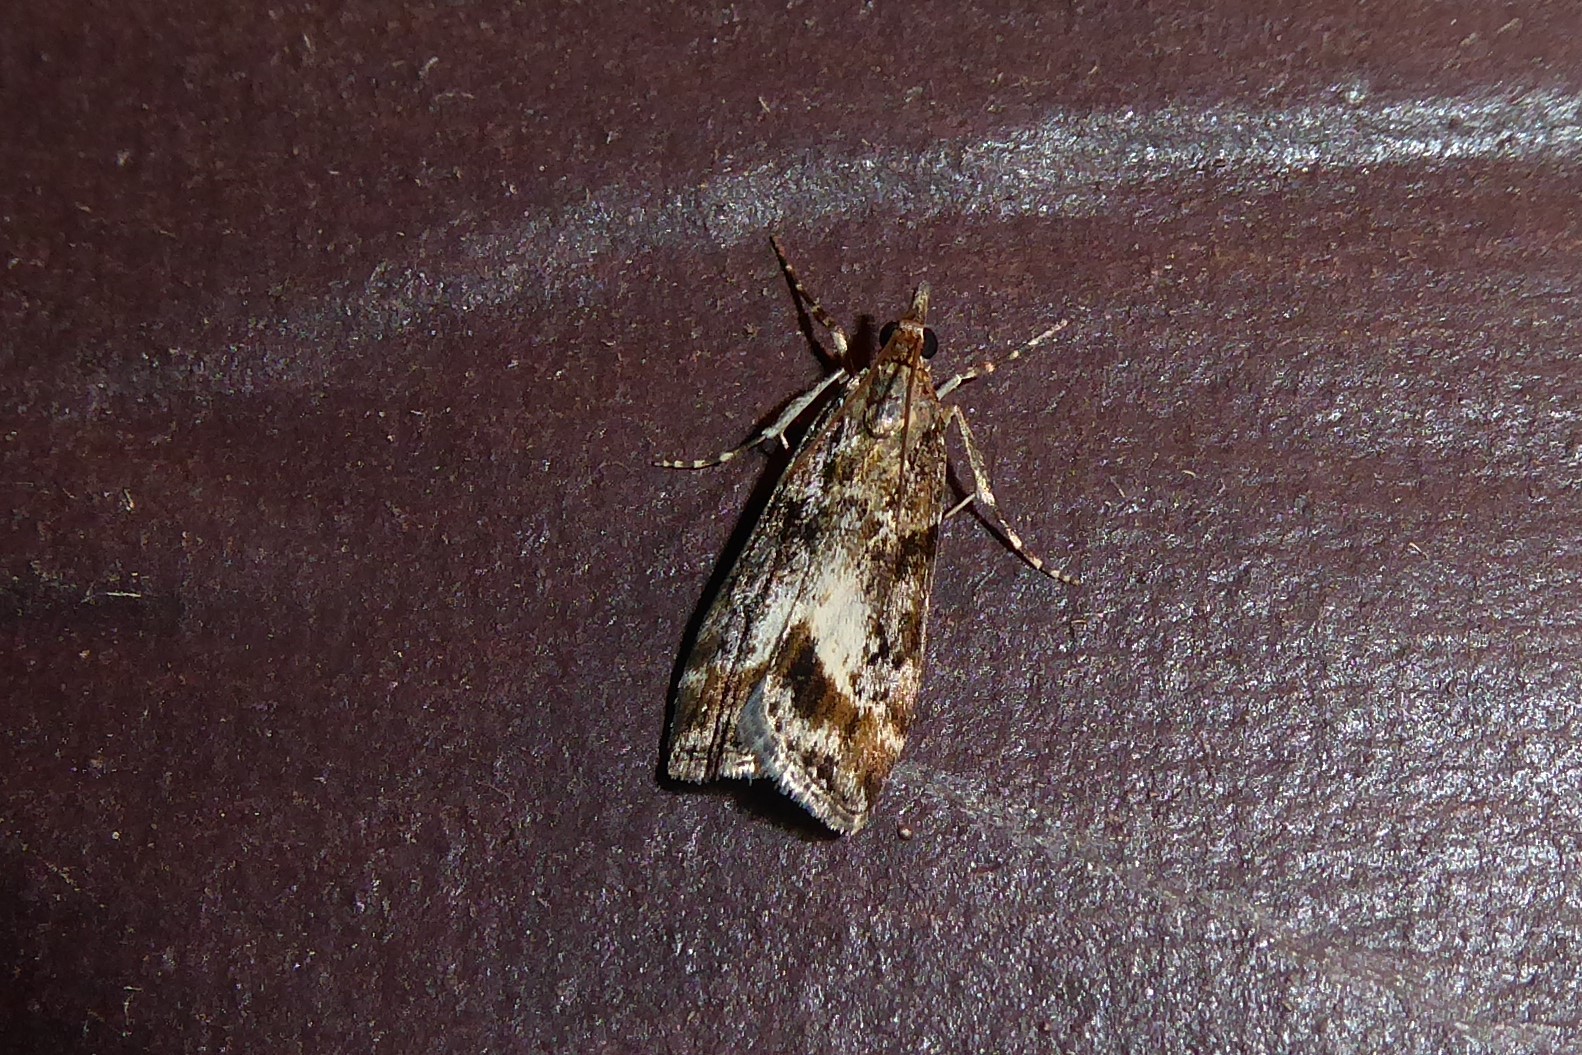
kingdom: Animalia
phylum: Arthropoda
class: Insecta
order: Lepidoptera
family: Crambidae
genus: Eudonia
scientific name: Eudonia legnota
